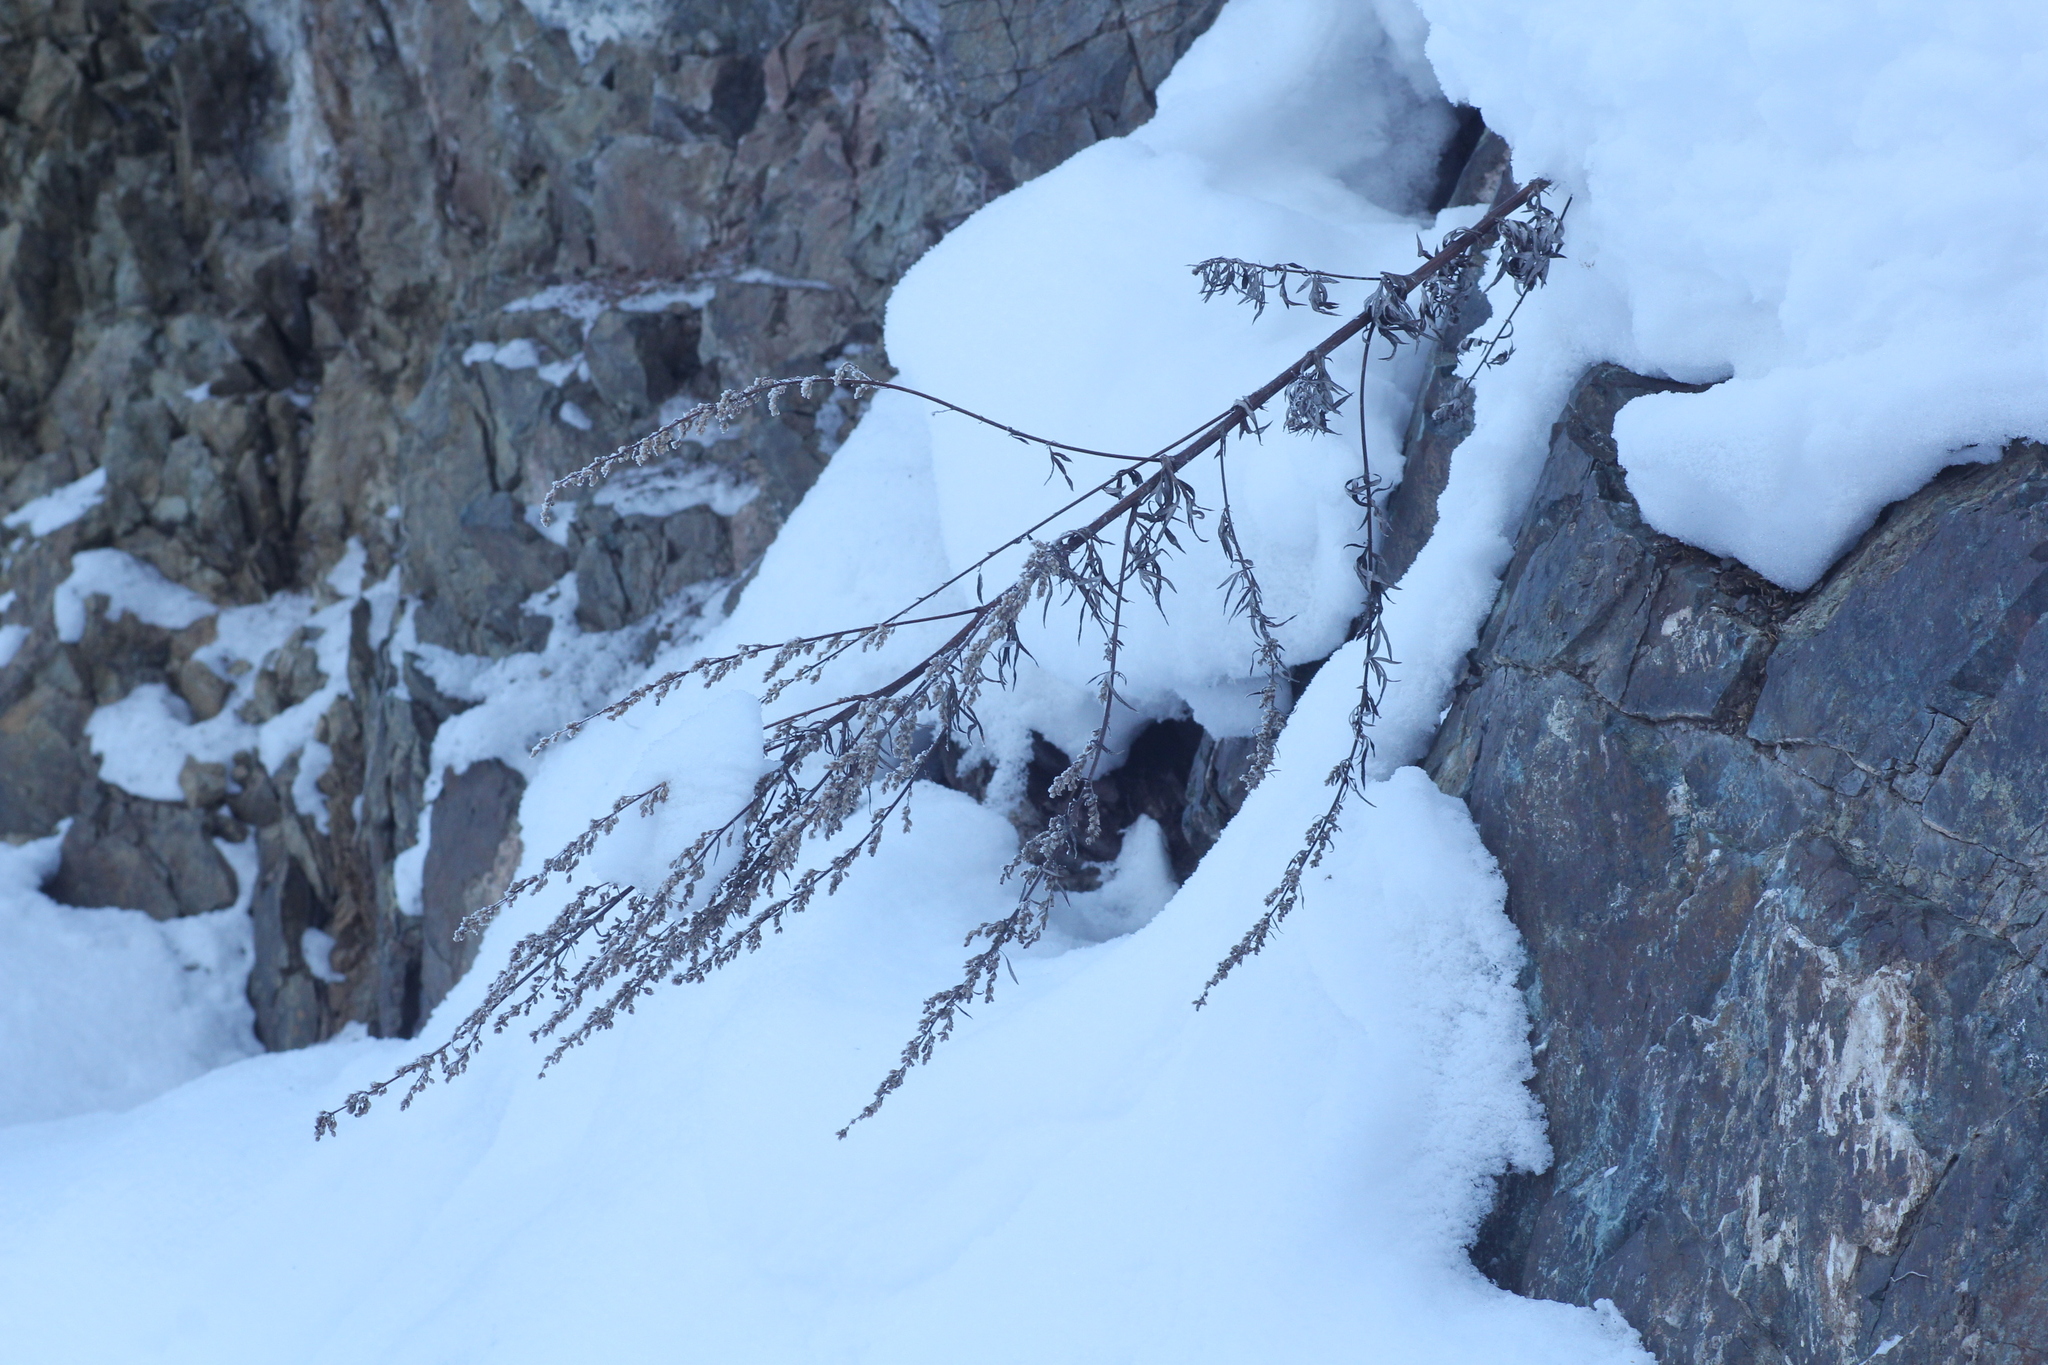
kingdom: Plantae
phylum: Tracheophyta
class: Magnoliopsida
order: Asterales
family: Asteraceae
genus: Artemisia
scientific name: Artemisia vulgaris
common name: Mugwort
